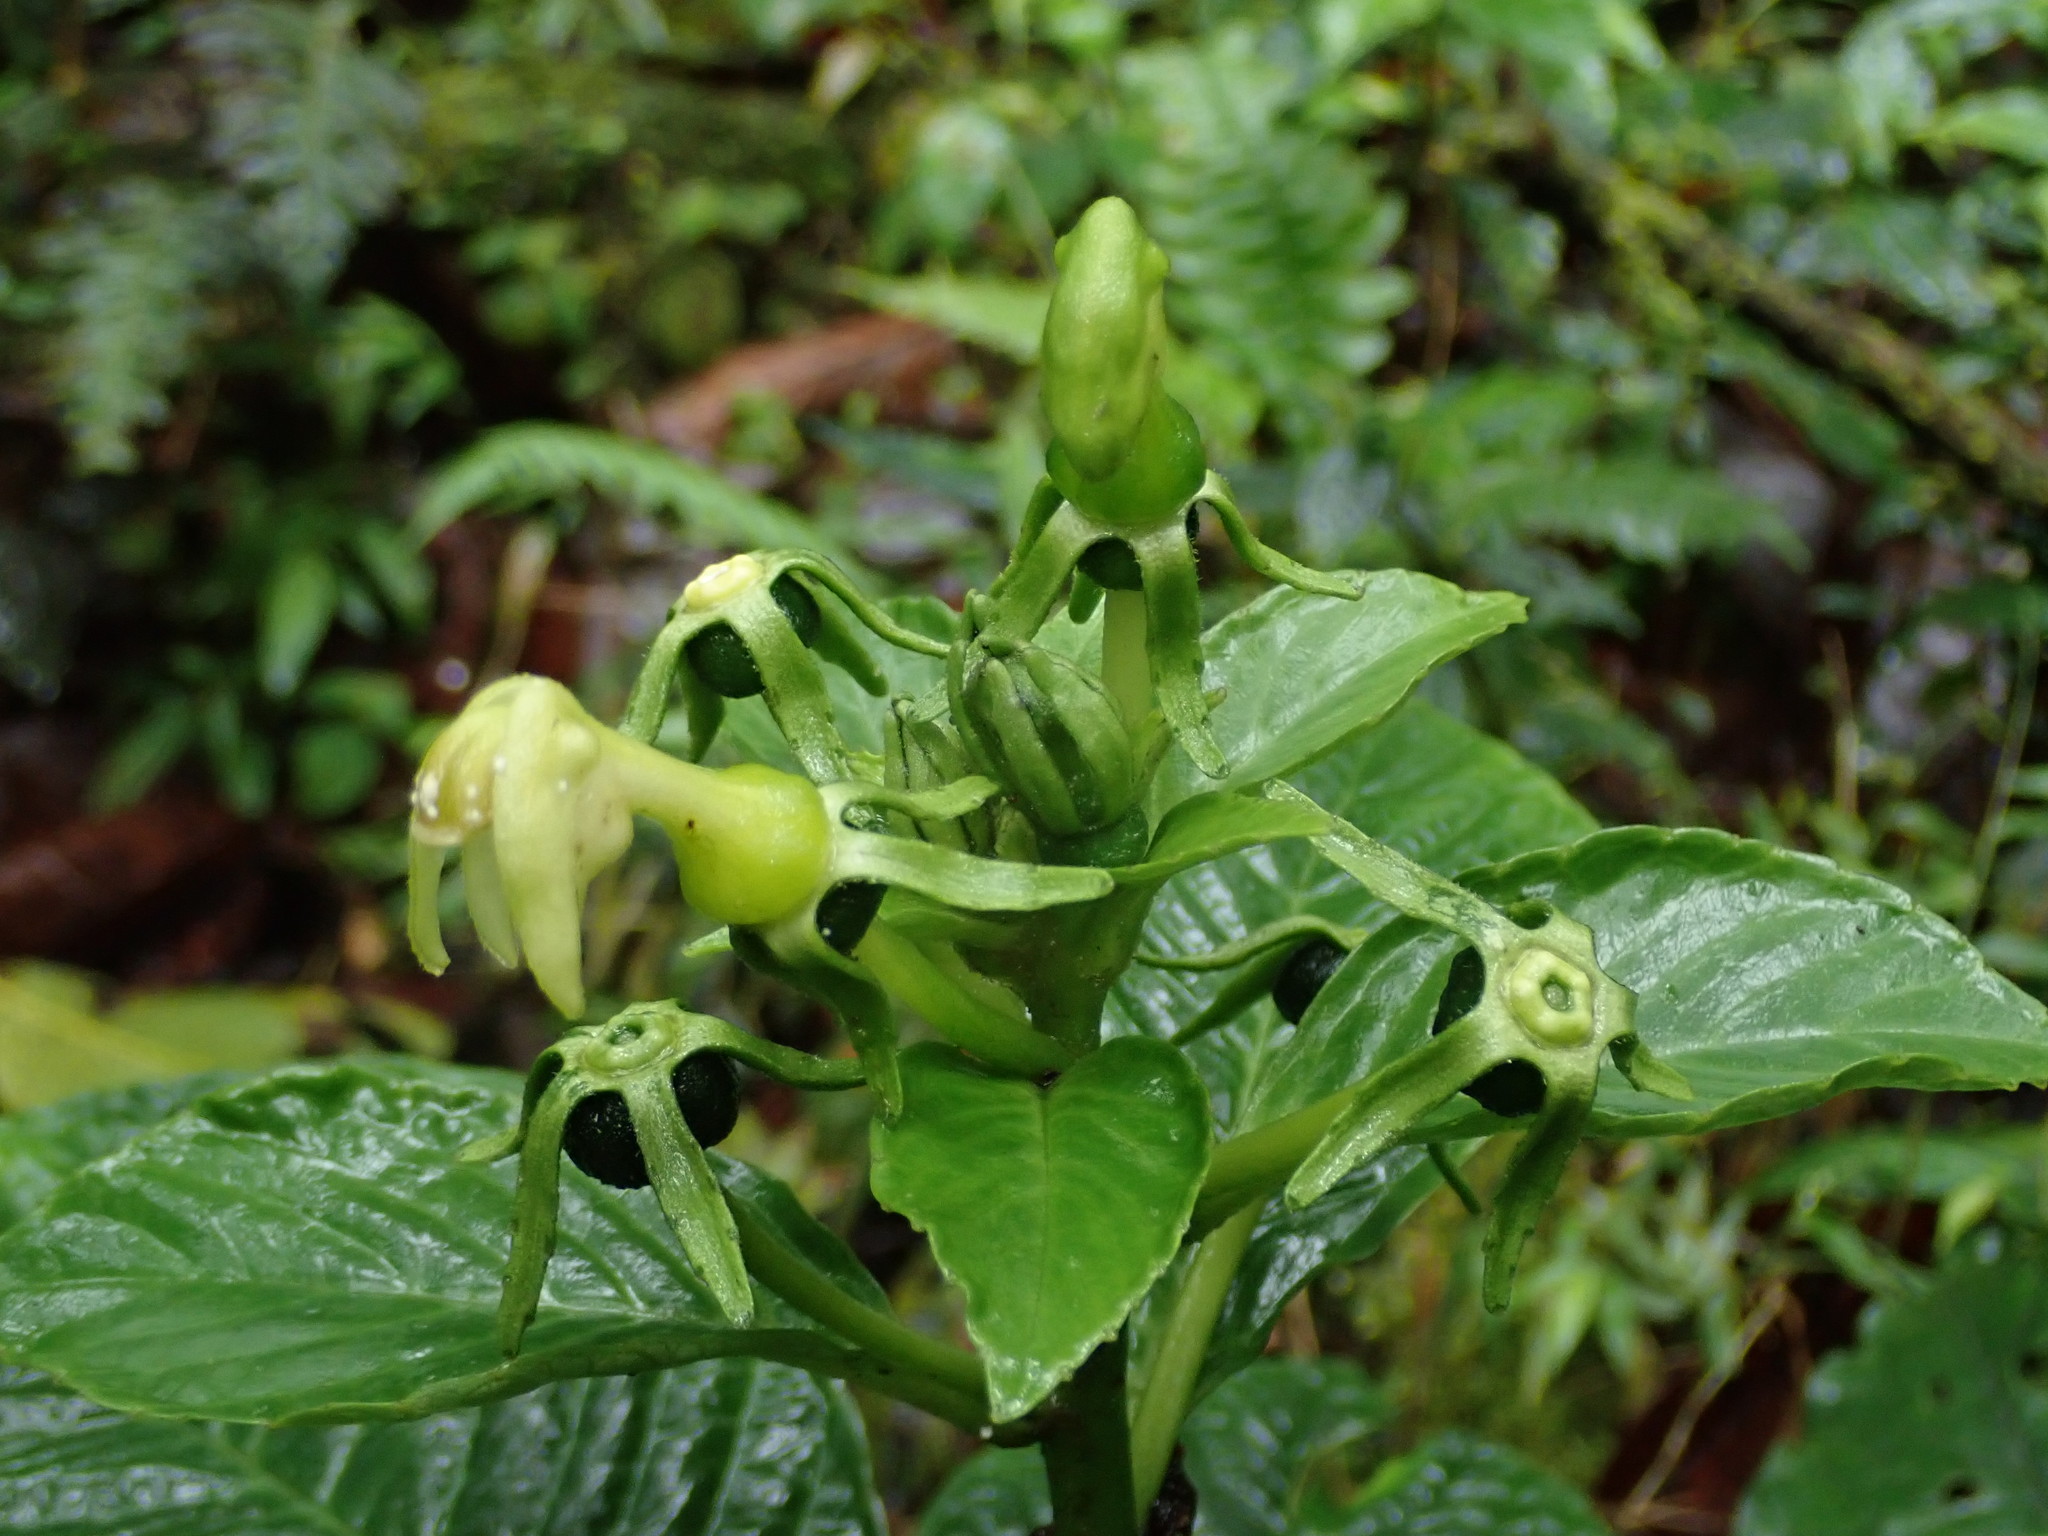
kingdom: Plantae
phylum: Tracheophyta
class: Magnoliopsida
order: Asterales
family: Campanulaceae
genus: Burmeistera
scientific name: Burmeistera lutosa
